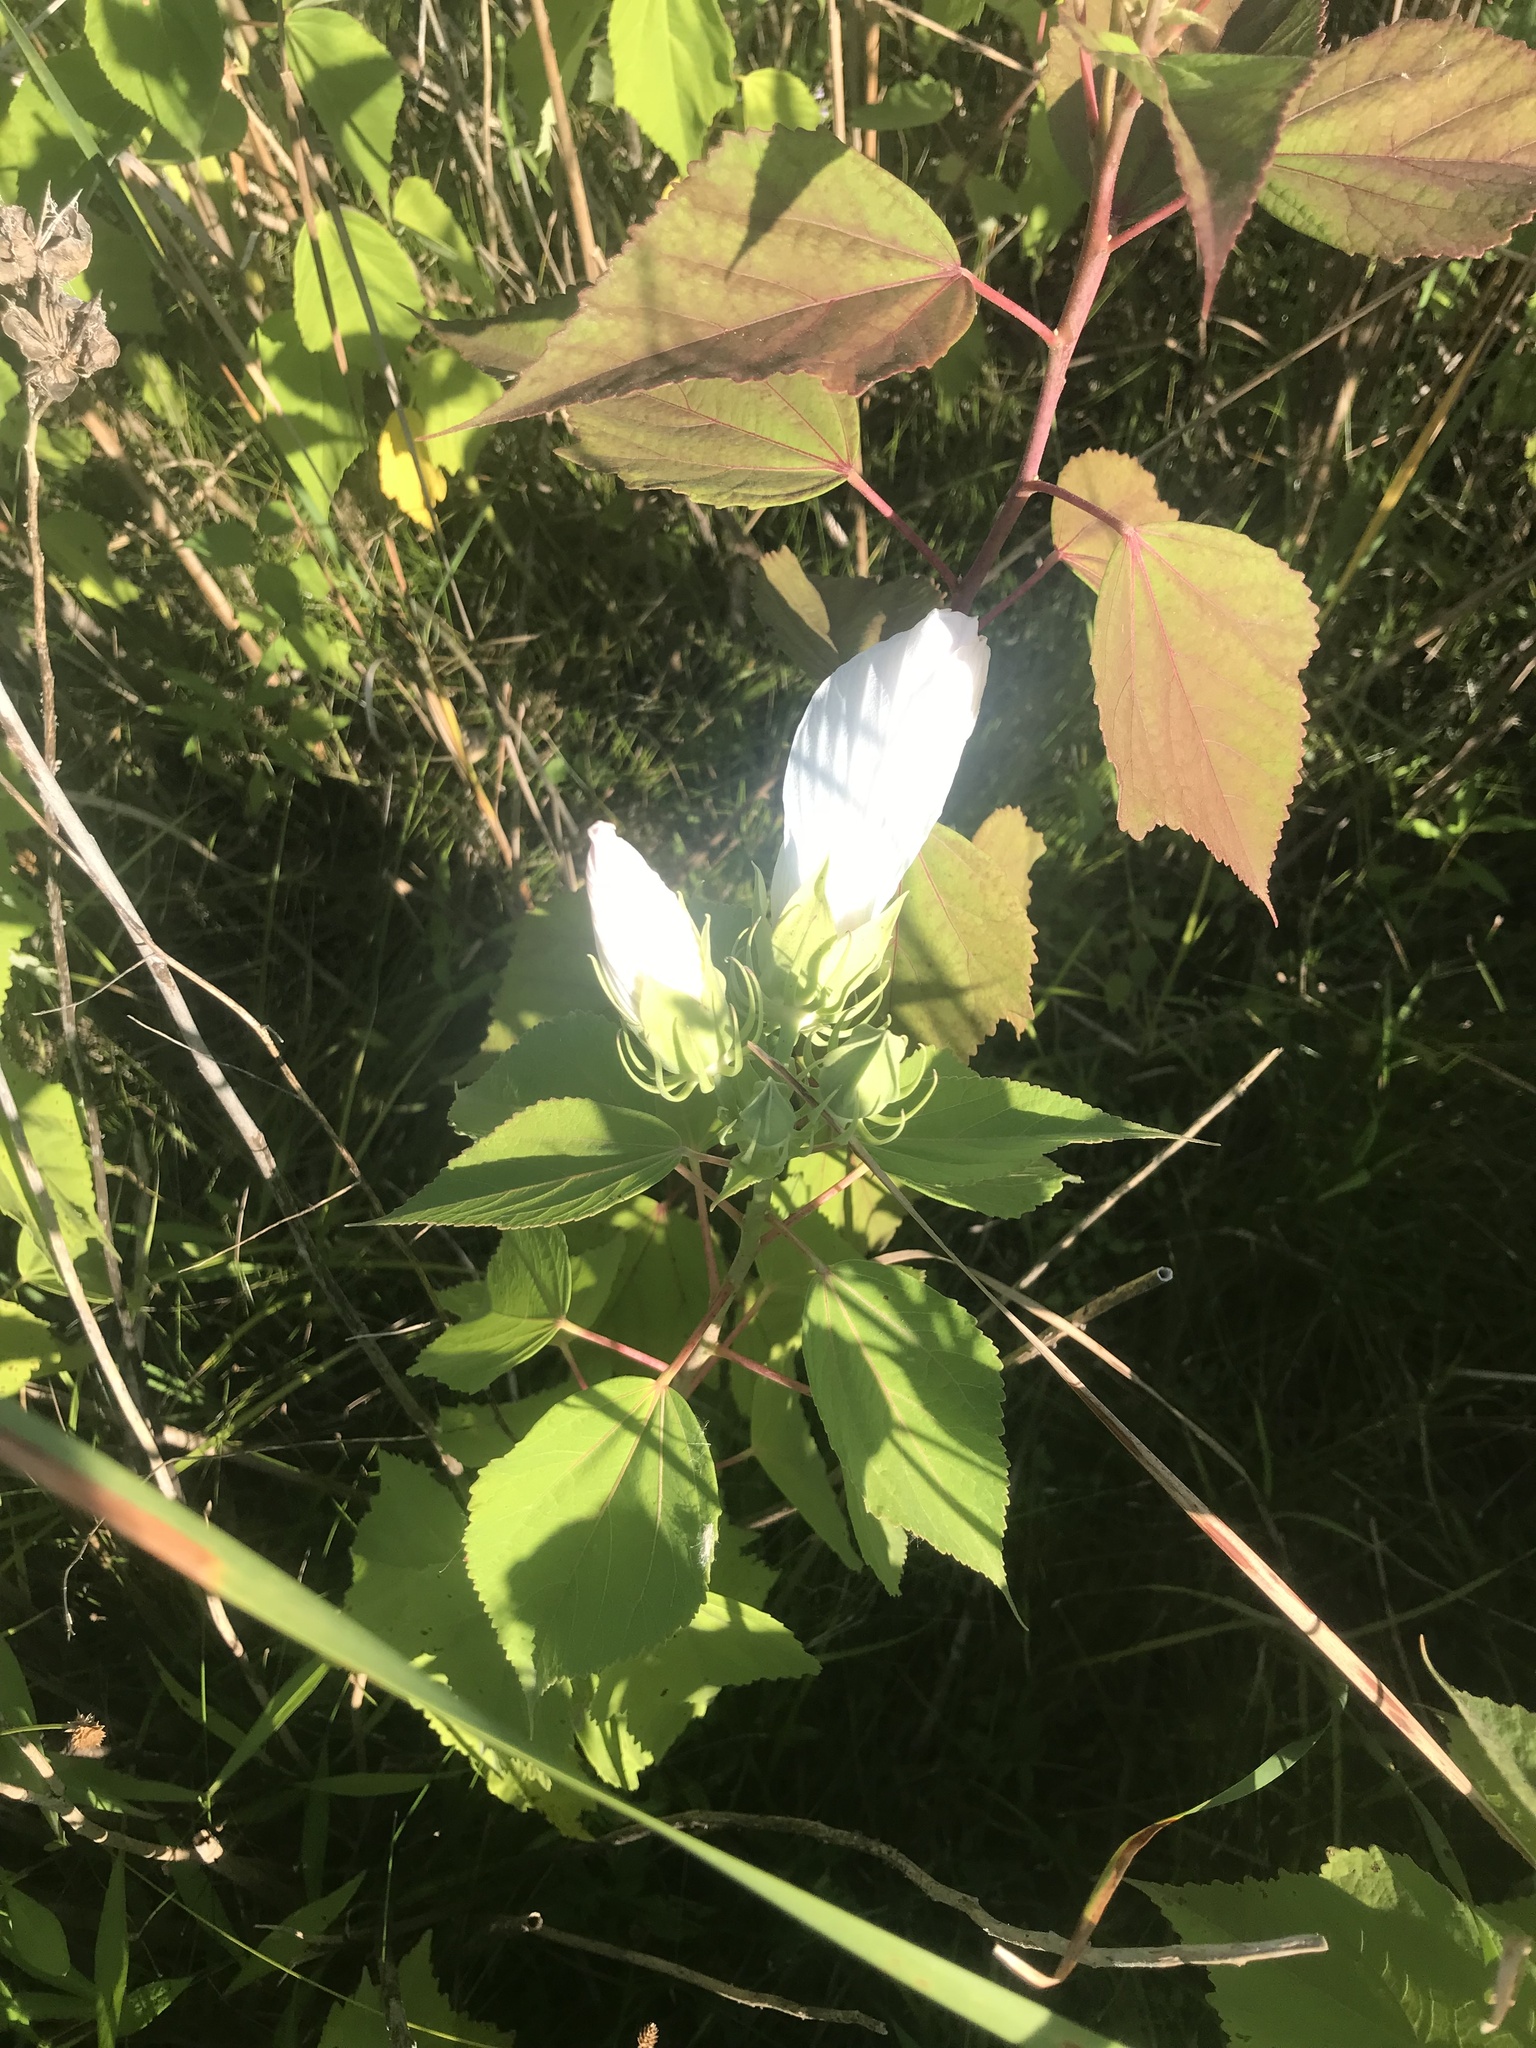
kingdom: Plantae
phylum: Tracheophyta
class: Magnoliopsida
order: Malvales
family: Malvaceae
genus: Hibiscus
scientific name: Hibiscus moscheutos
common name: Common rose-mallow
